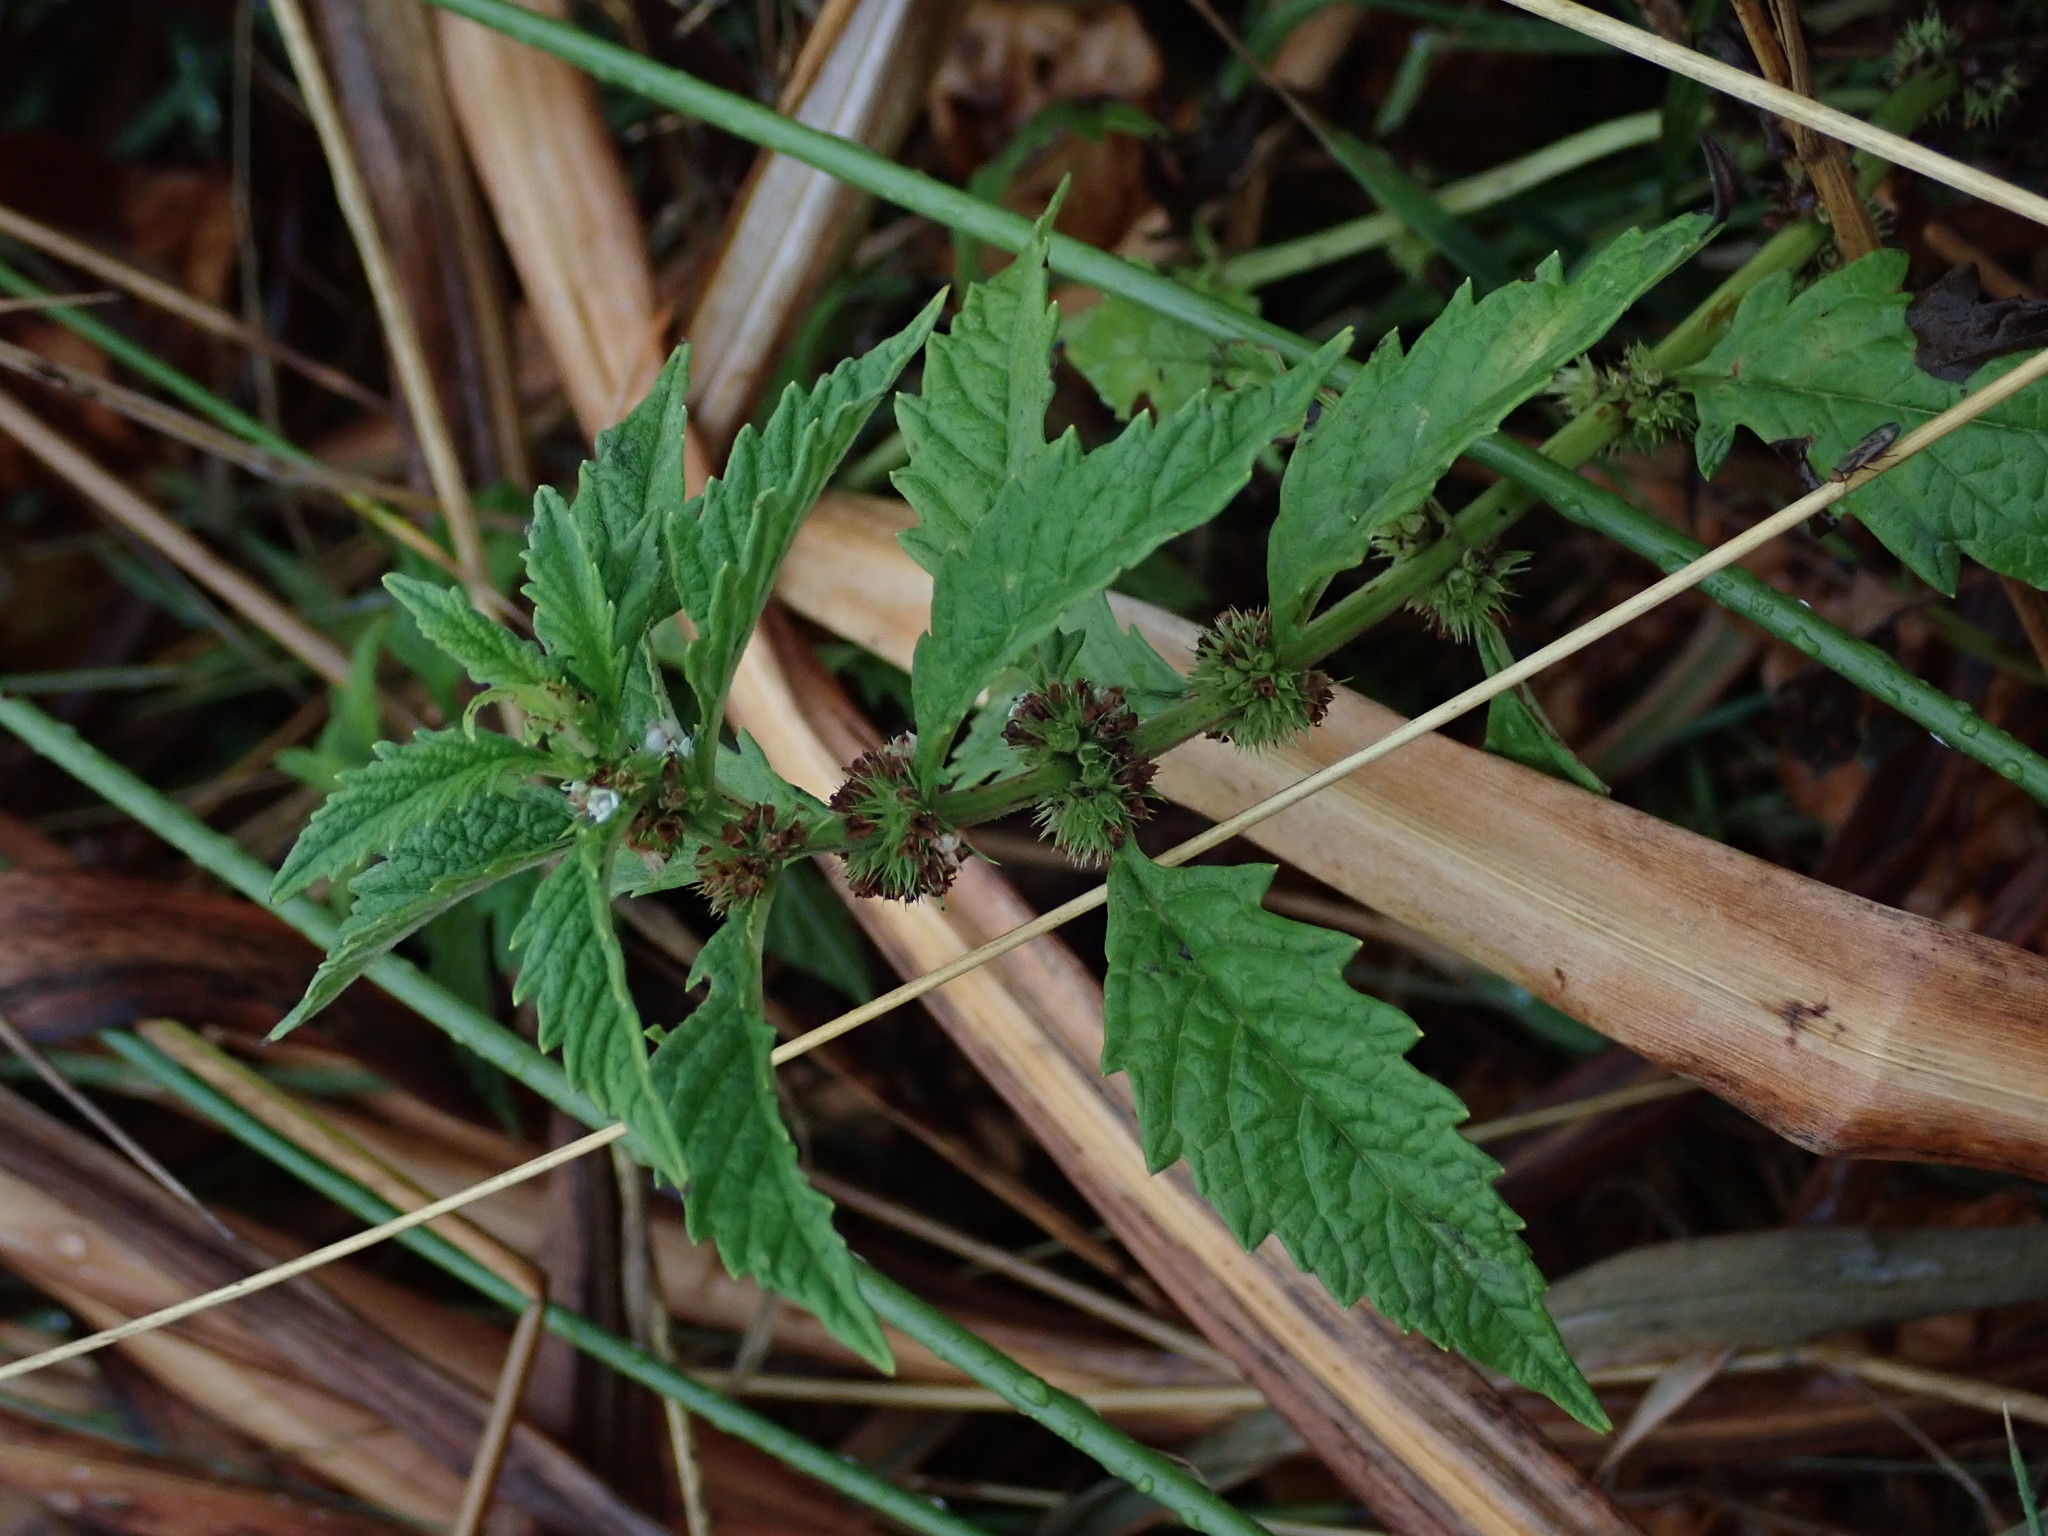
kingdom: Plantae
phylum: Tracheophyta
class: Magnoliopsida
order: Lamiales
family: Lamiaceae
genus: Lycopus
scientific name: Lycopus europaeus
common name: European bugleweed
